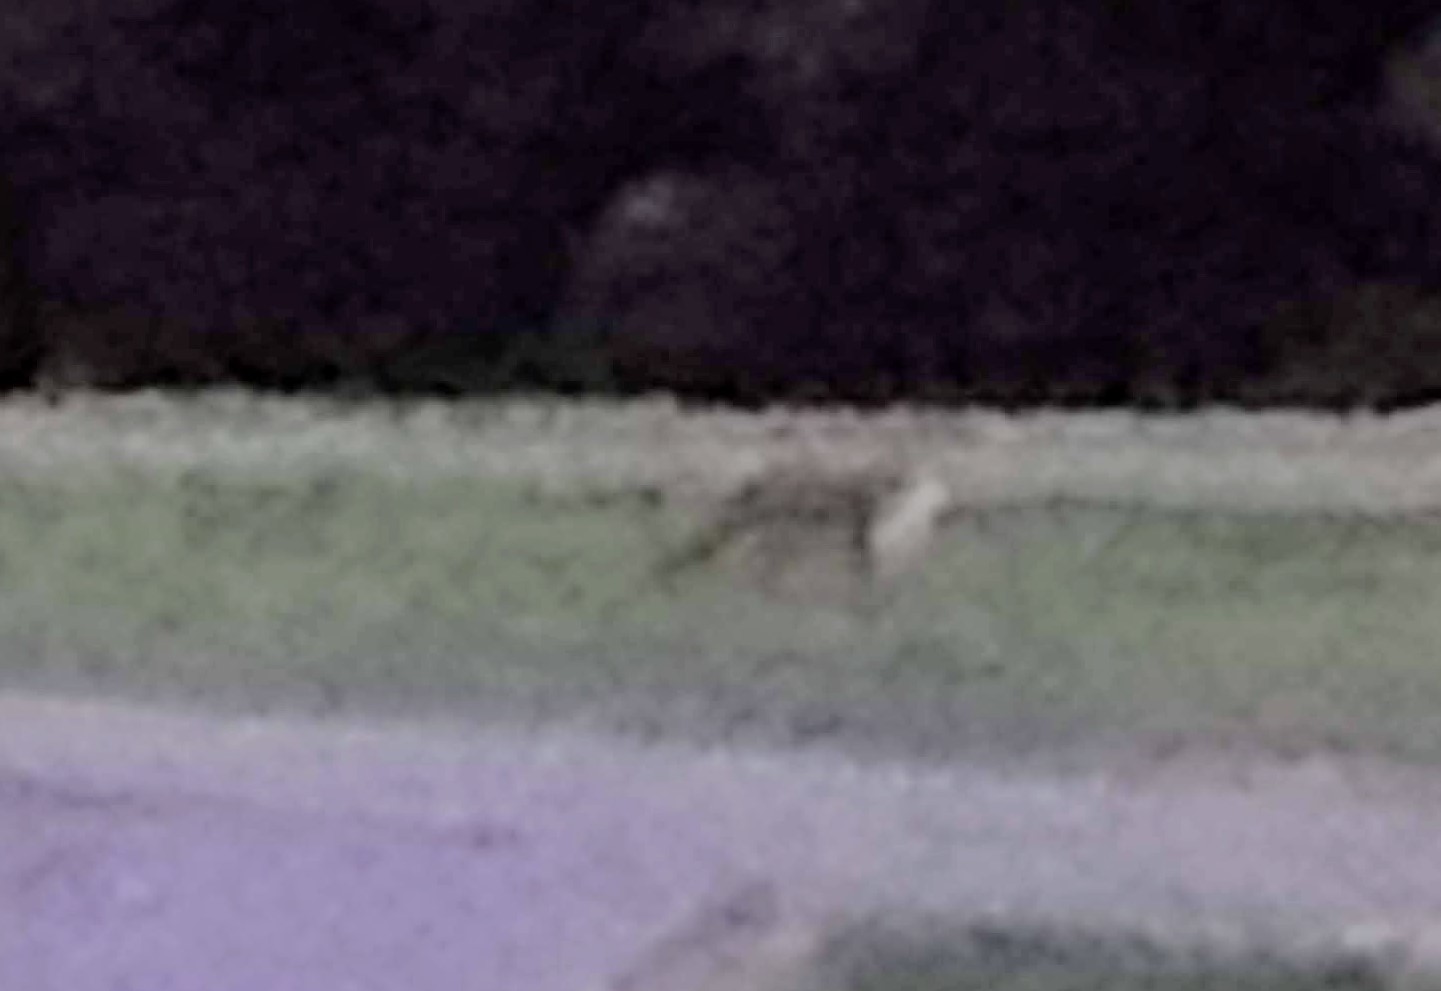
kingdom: Animalia
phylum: Chordata
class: Mammalia
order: Carnivora
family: Canidae
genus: Vulpes
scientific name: Vulpes vulpes
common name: Red fox
